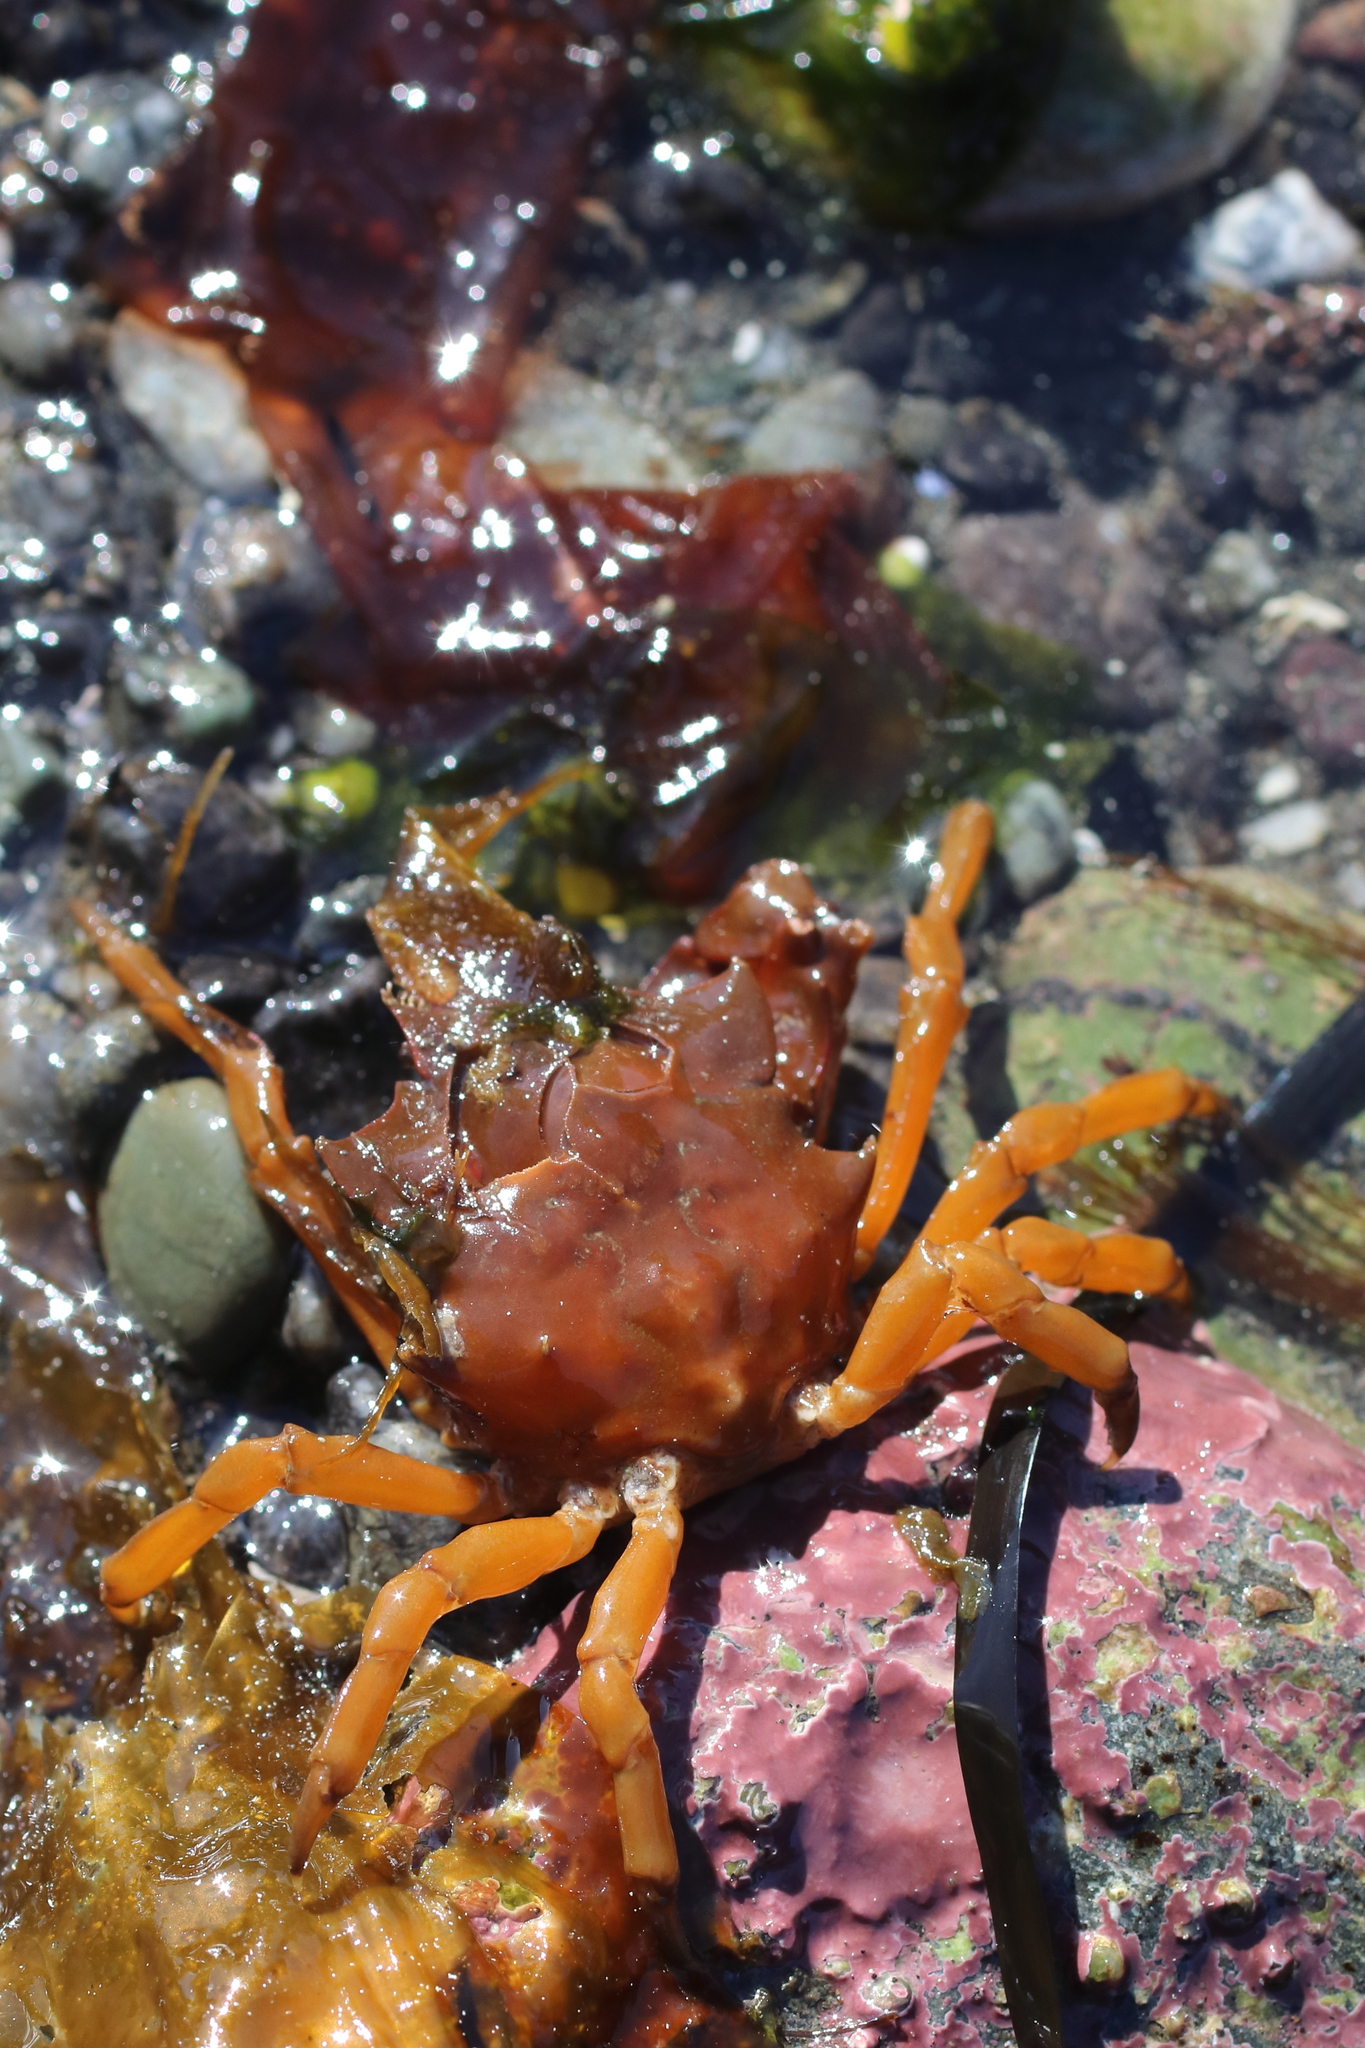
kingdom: Animalia
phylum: Arthropoda
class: Malacostraca
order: Decapoda
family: Epialtidae
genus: Pugettia
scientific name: Pugettia gracilis
